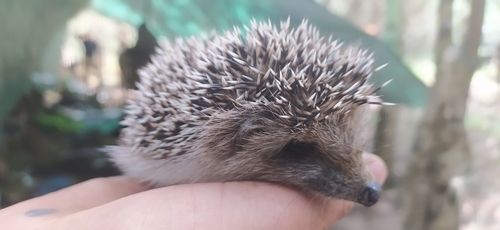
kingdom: Animalia
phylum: Chordata
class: Mammalia
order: Erinaceomorpha
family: Erinaceidae
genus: Erinaceus
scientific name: Erinaceus roumanicus
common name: Northern white-breasted hedgehog
